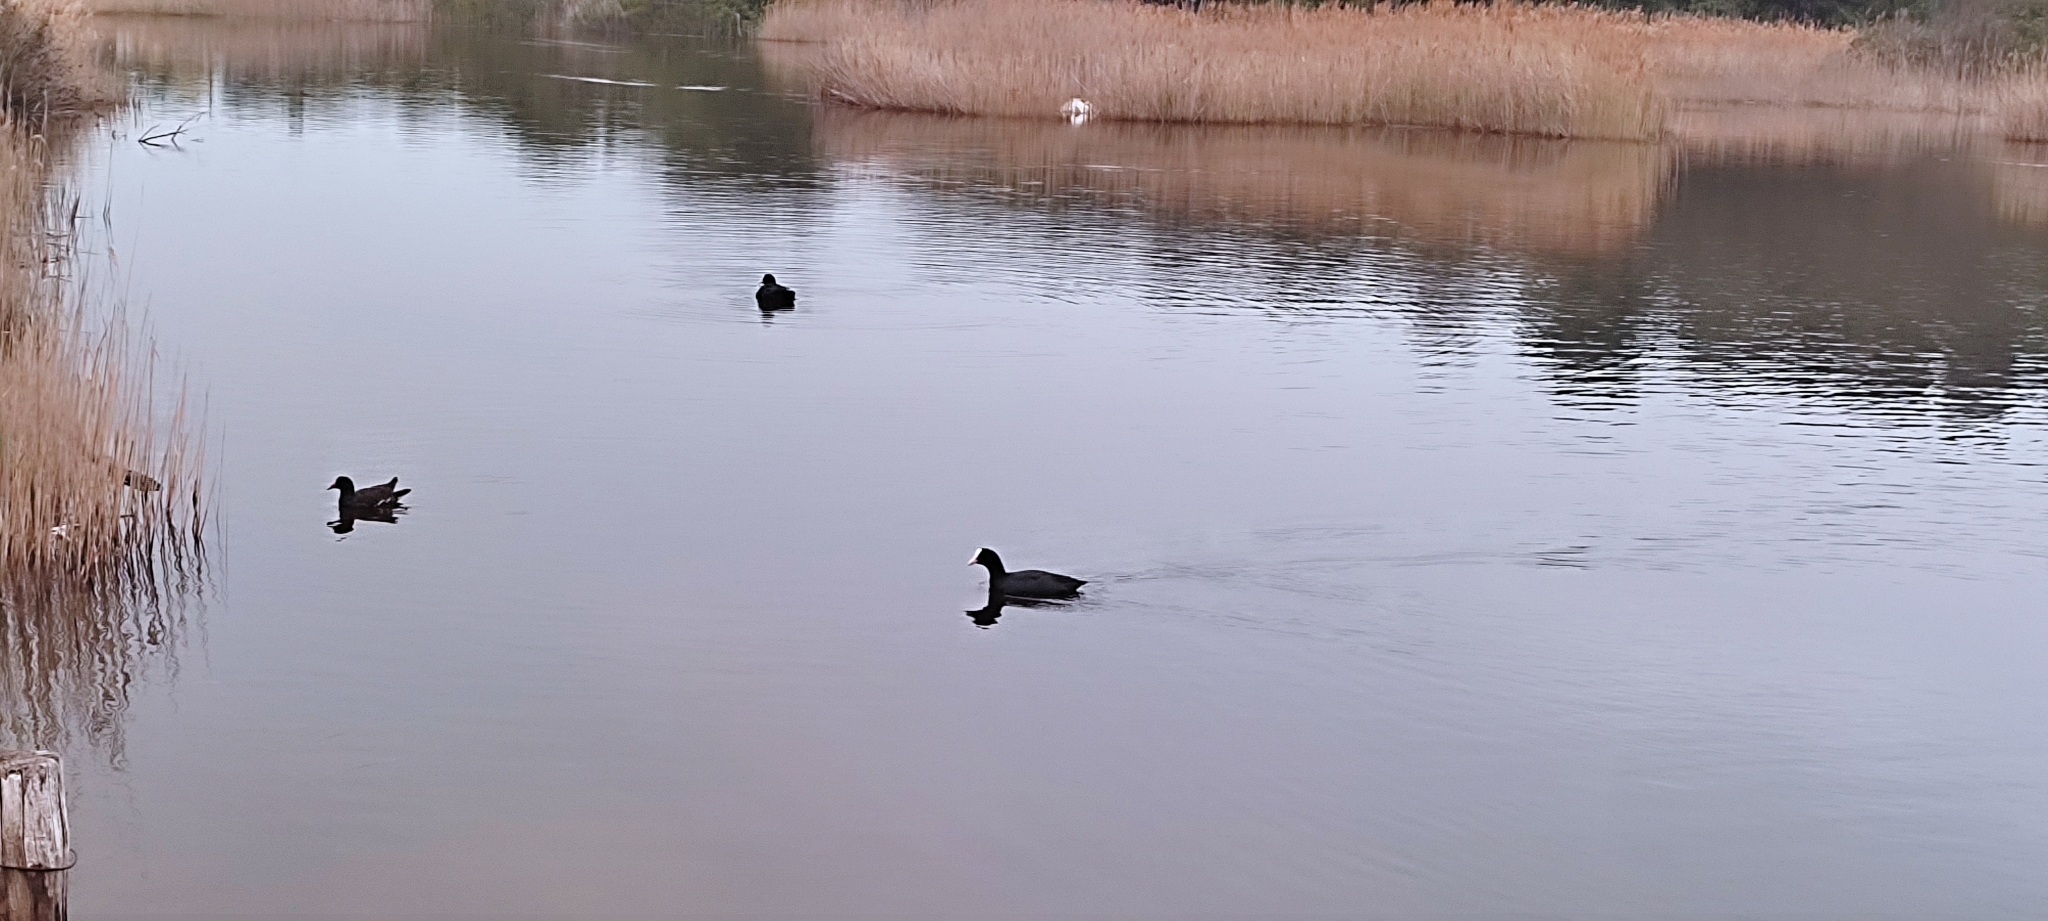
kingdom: Animalia
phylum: Chordata
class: Aves
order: Gruiformes
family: Rallidae
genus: Fulica
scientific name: Fulica atra
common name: Eurasian coot
